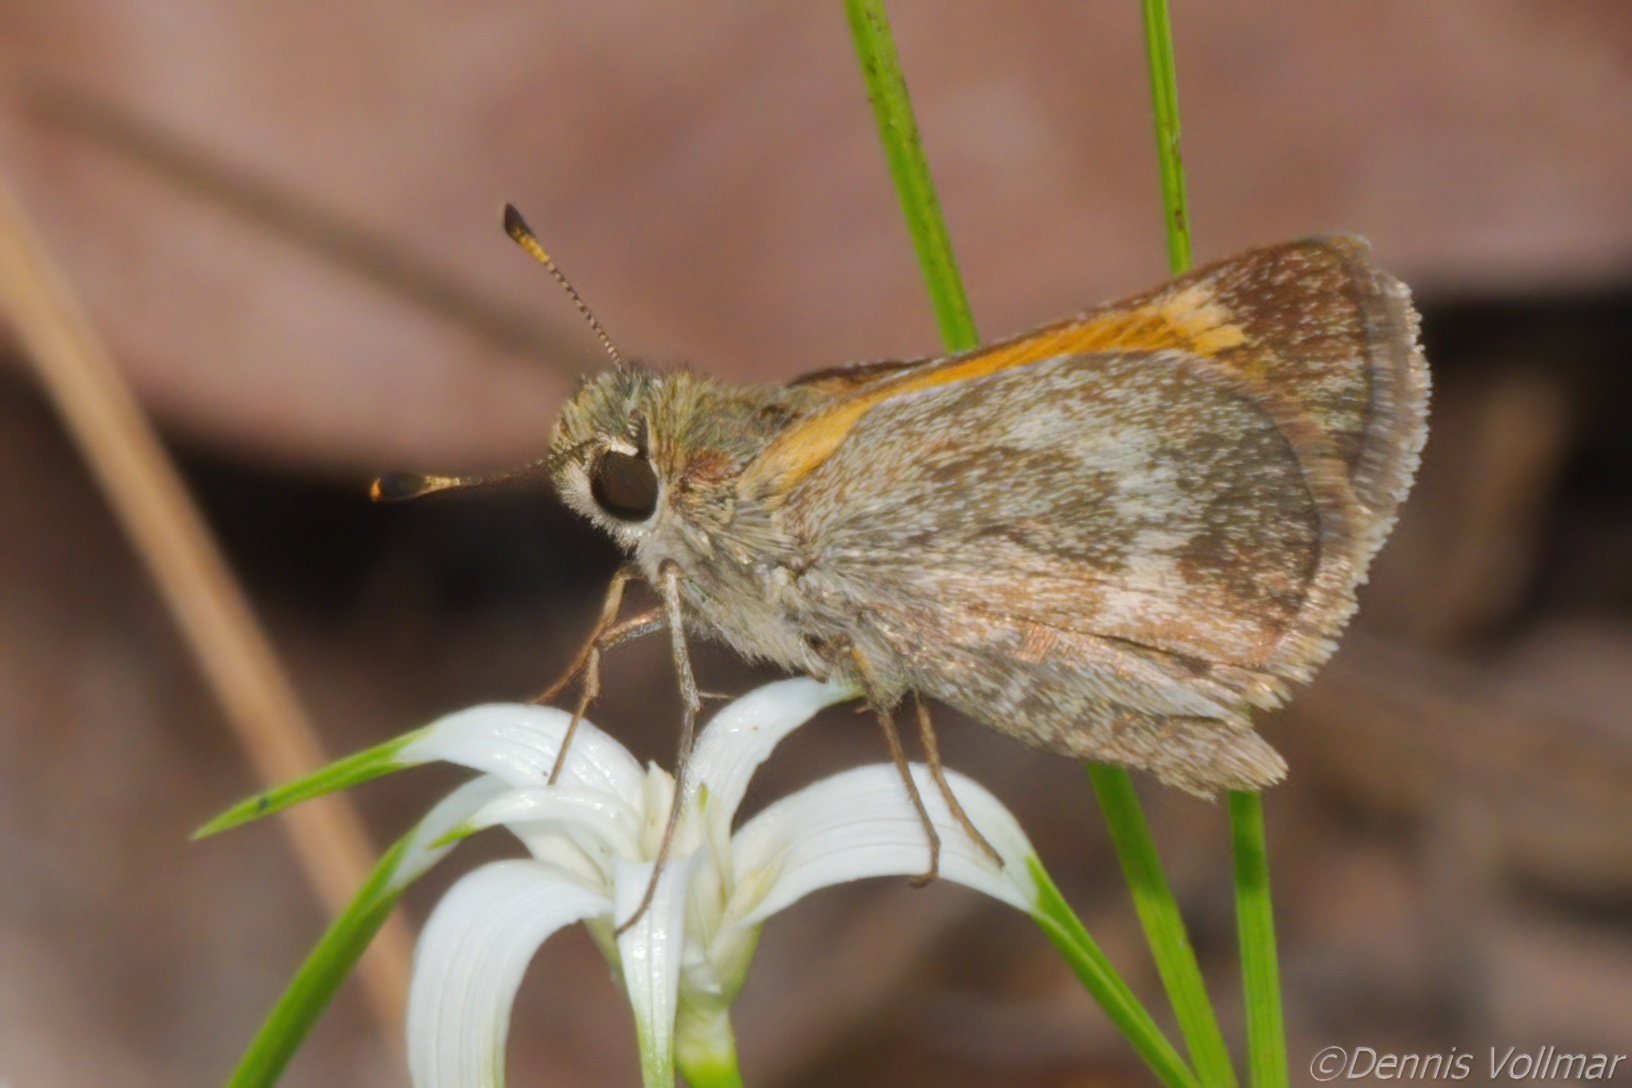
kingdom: Animalia
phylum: Arthropoda
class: Insecta
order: Lepidoptera
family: Hesperiidae
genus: Polites
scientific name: Polites baracoa
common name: Baracoa skipper
